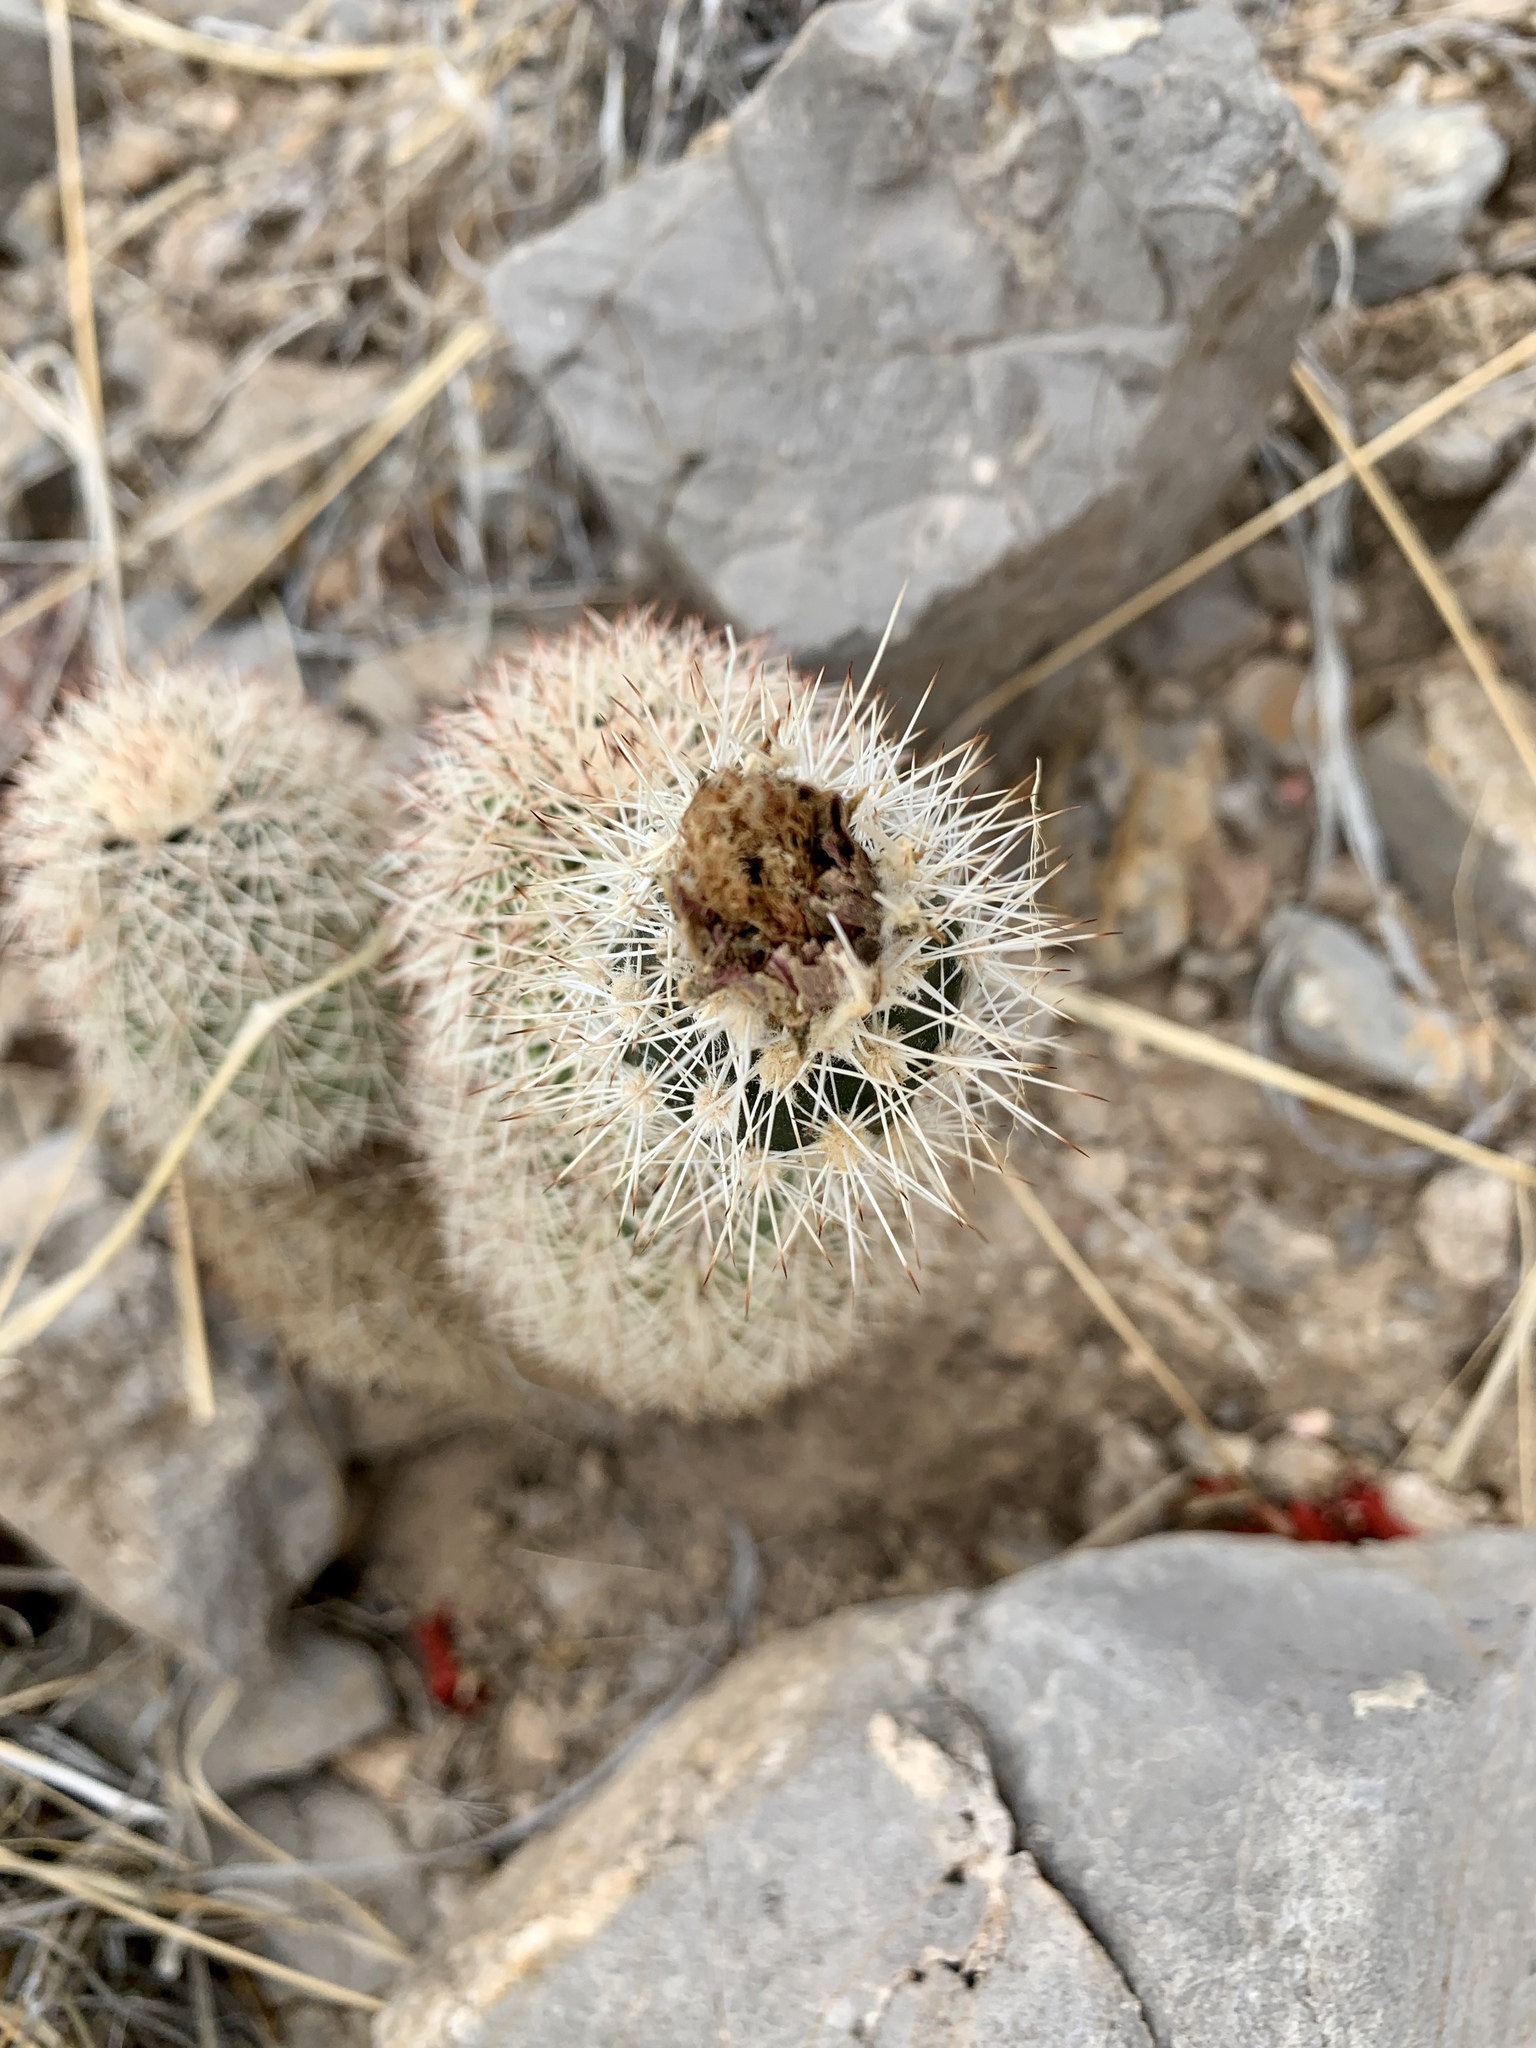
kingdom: Plantae
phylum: Tracheophyta
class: Magnoliopsida
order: Caryophyllales
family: Cactaceae
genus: Echinocereus
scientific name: Echinocereus dasyacanthus
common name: Spiny hedgehog cactus
